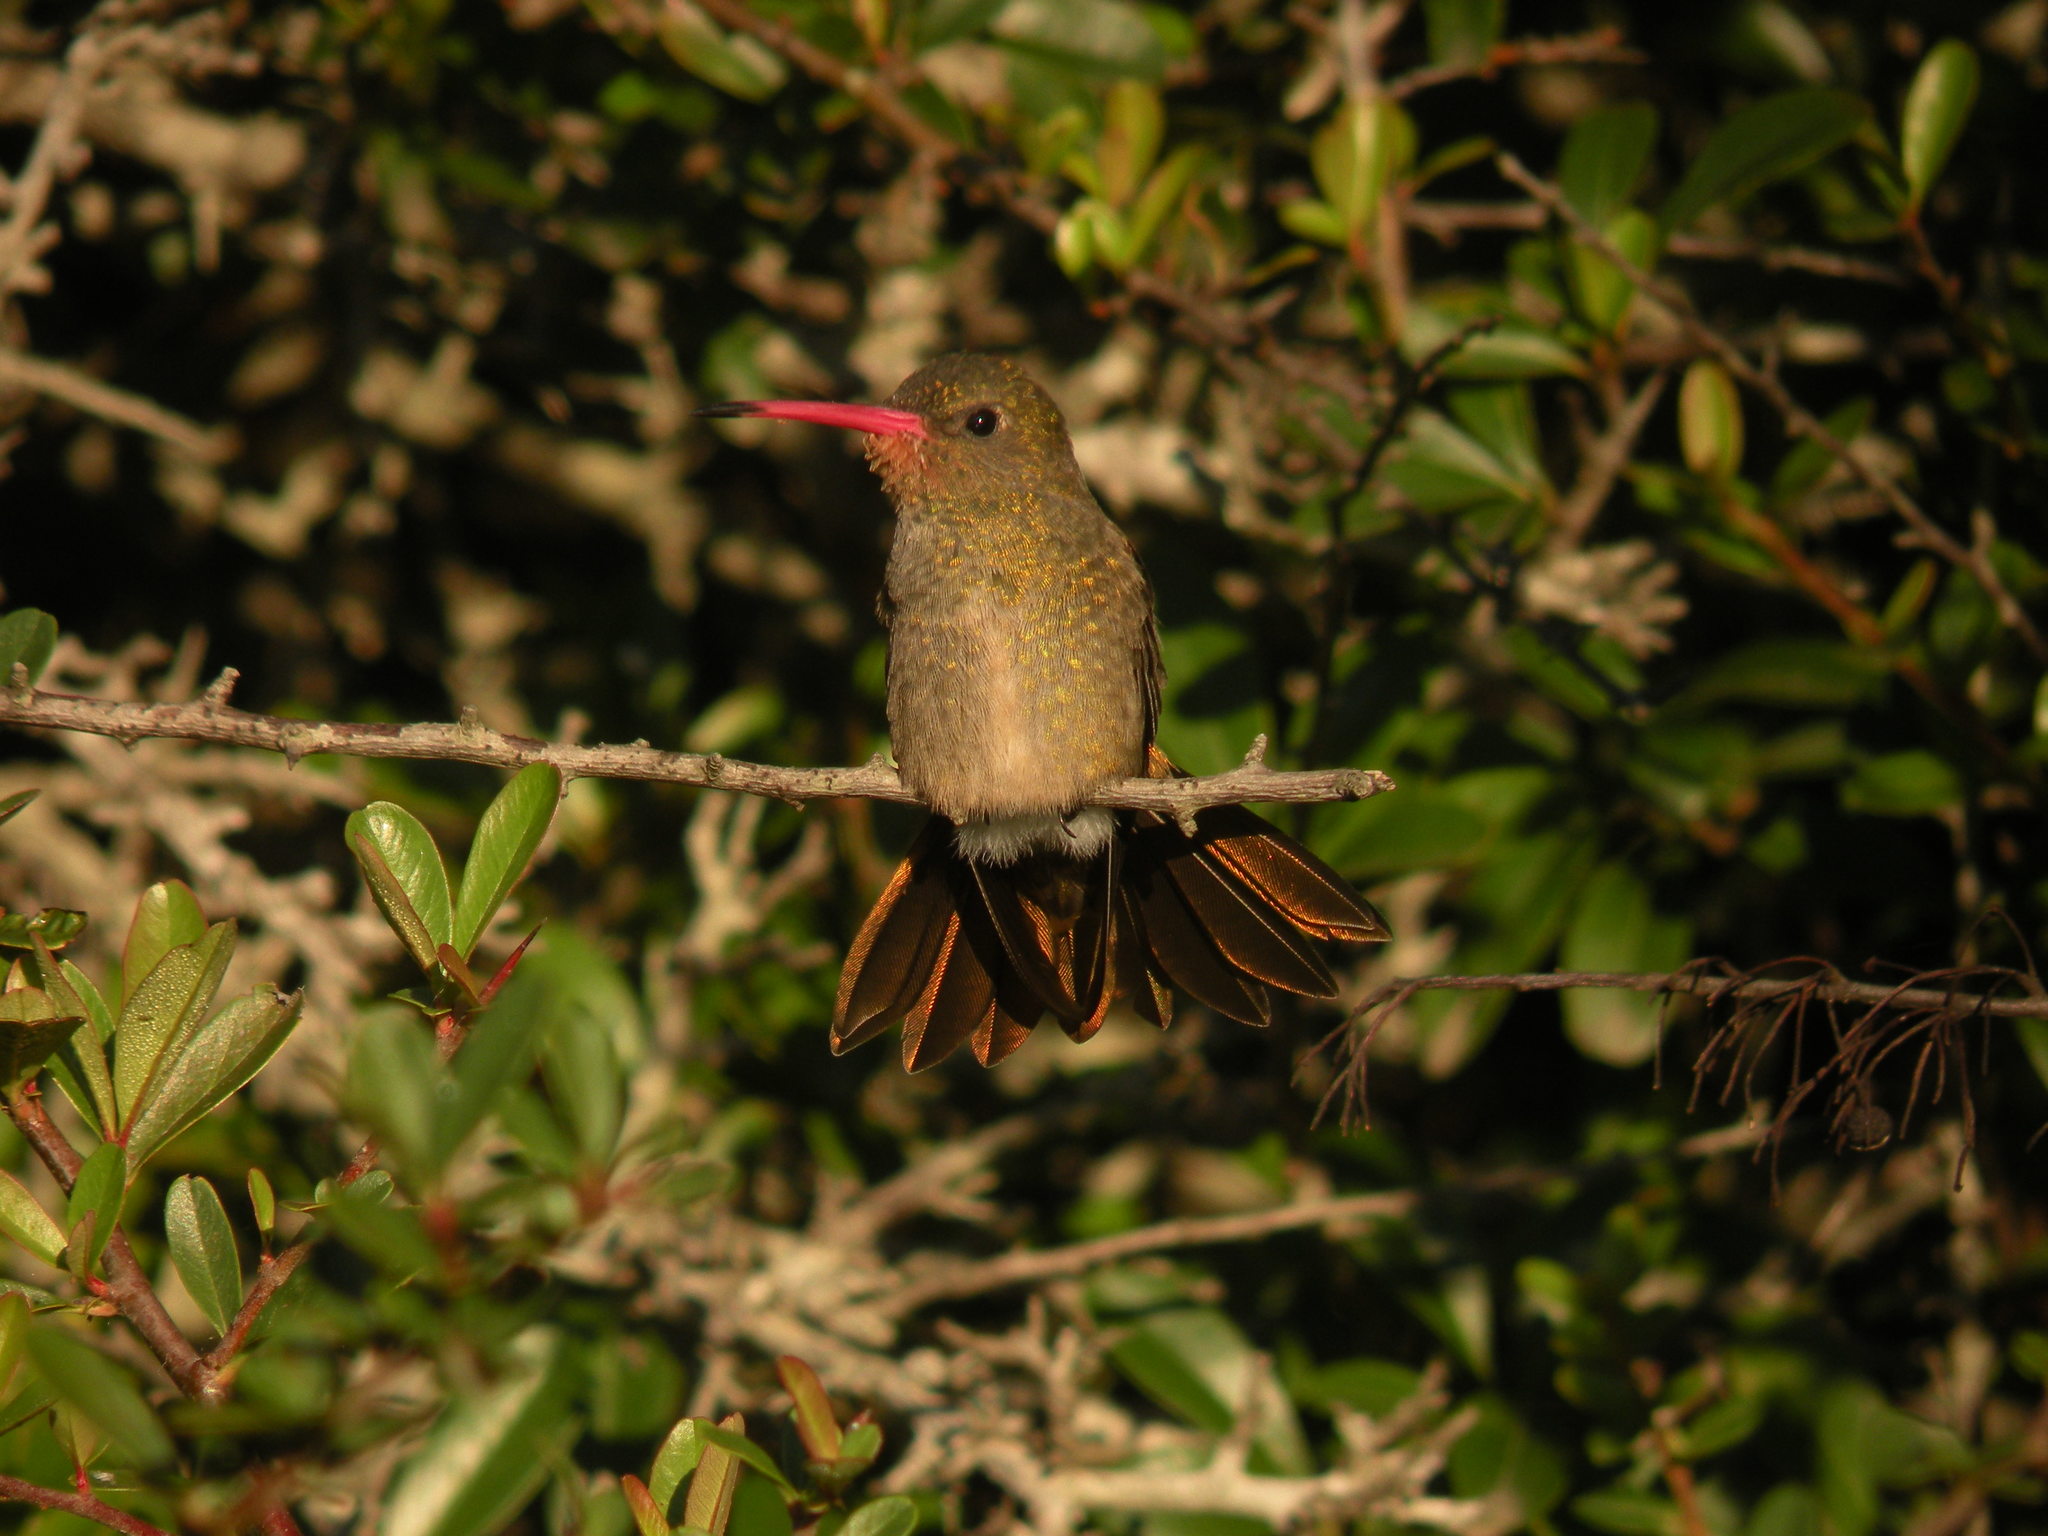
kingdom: Animalia
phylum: Chordata
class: Aves
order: Apodiformes
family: Trochilidae
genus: Hylocharis
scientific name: Hylocharis chrysura
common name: Gilded sapphire
